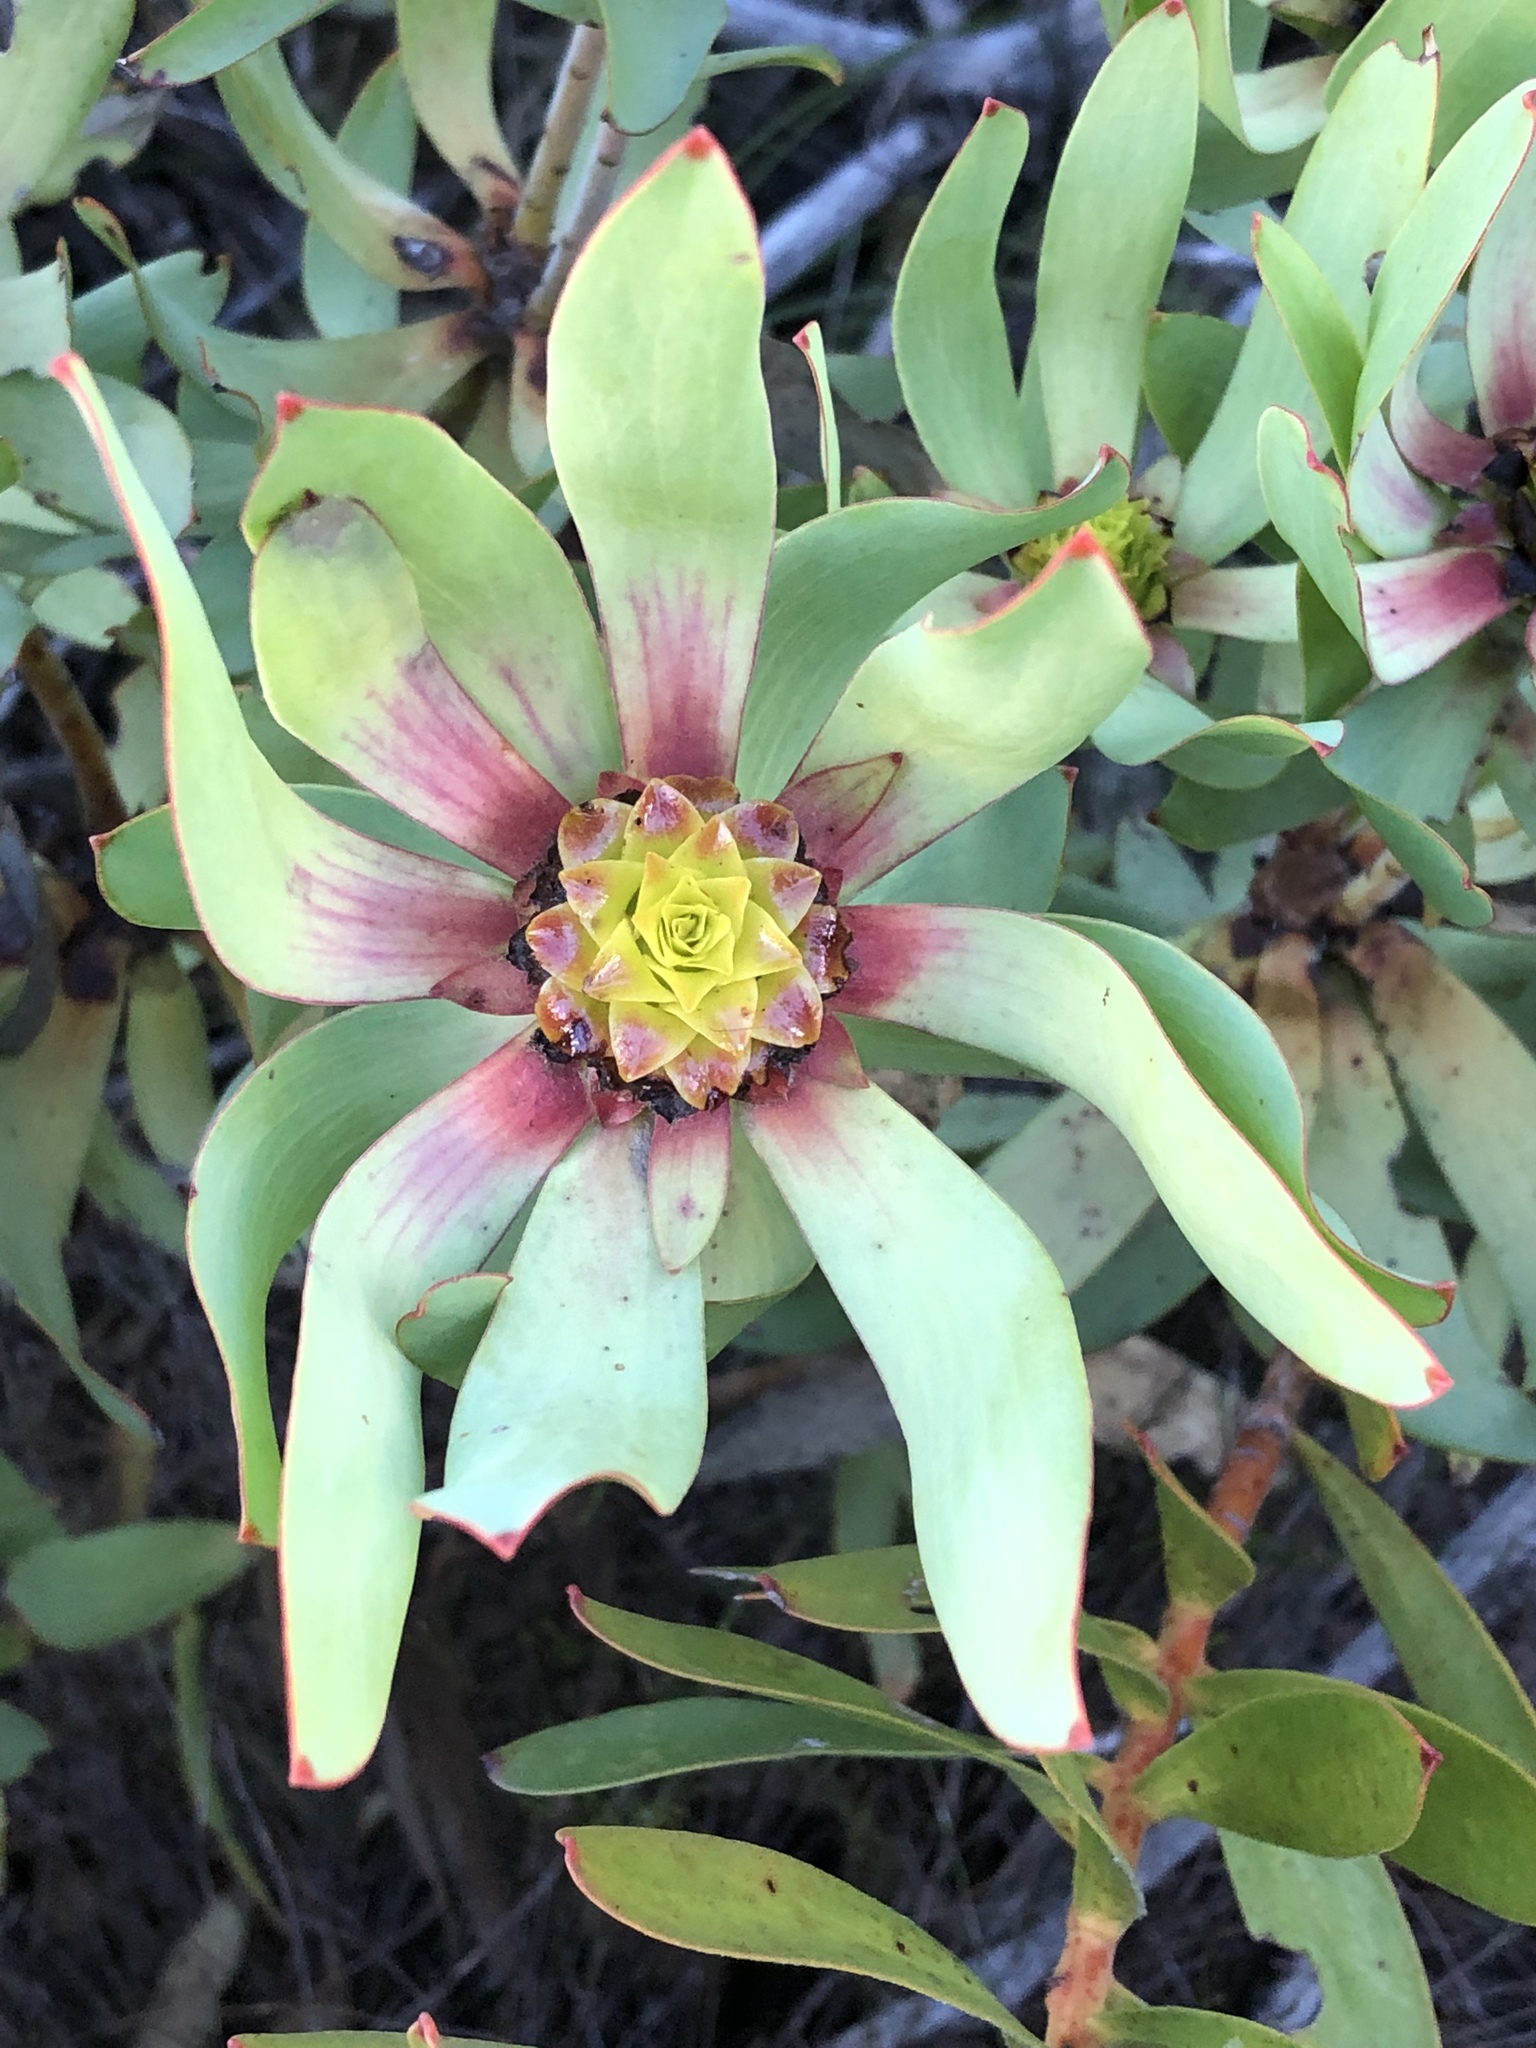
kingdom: Plantae
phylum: Tracheophyta
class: Magnoliopsida
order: Proteales
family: Proteaceae
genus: Leucadendron
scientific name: Leucadendron tinctum
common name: Spicy conebush
